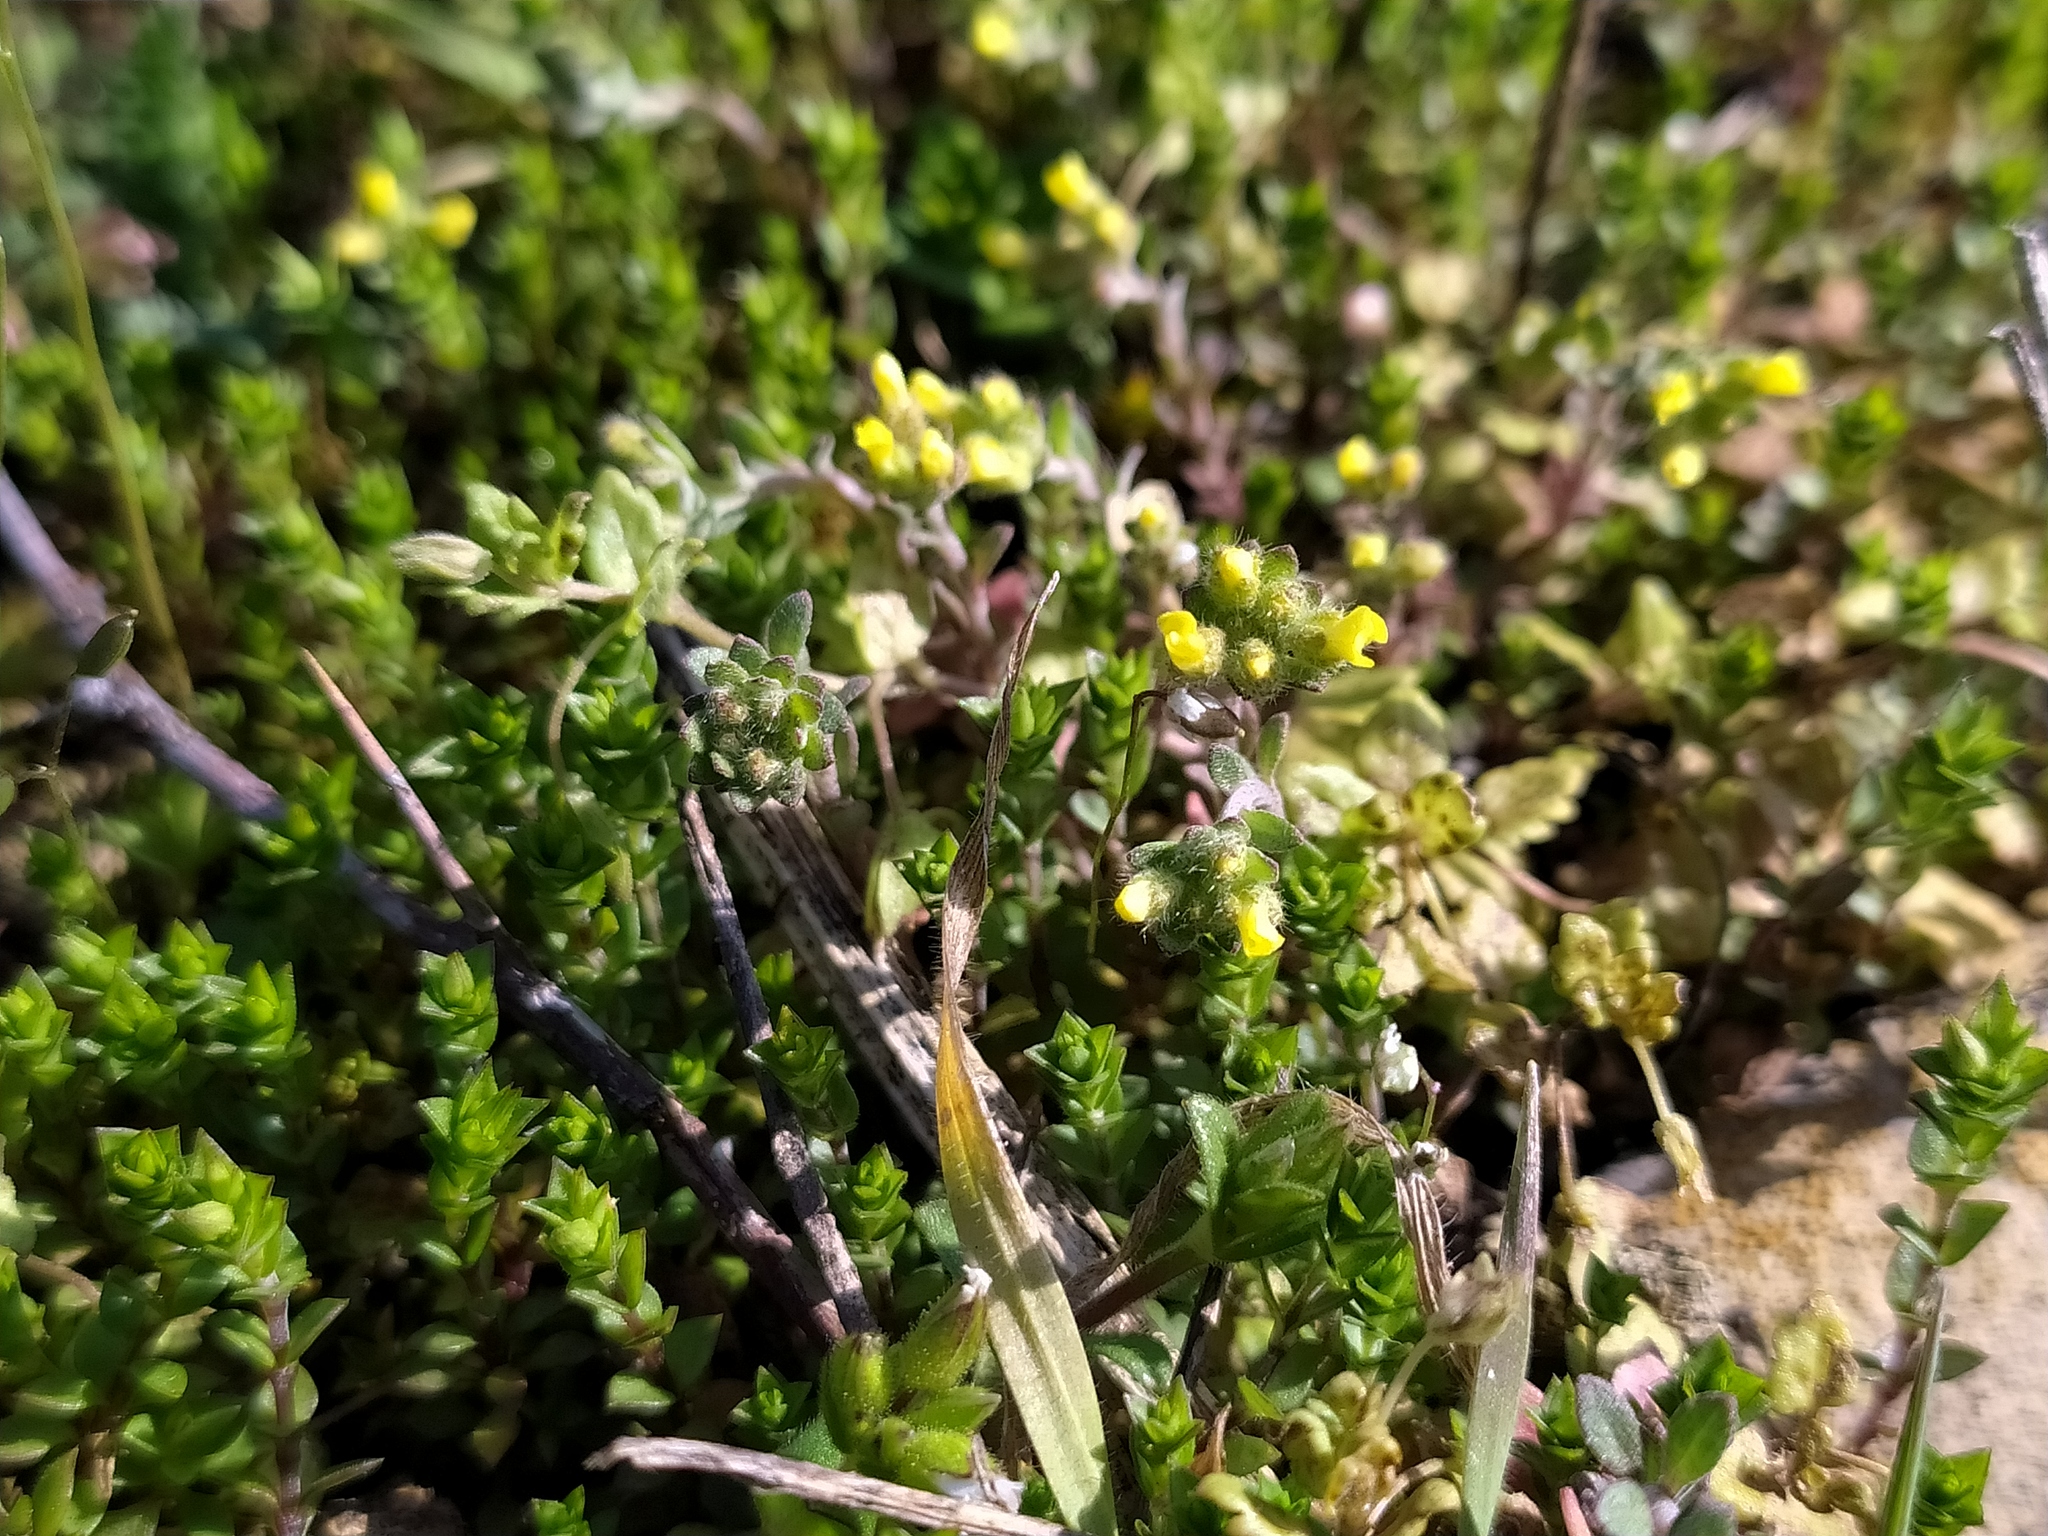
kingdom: Plantae
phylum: Tracheophyta
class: Magnoliopsida
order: Brassicales
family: Brassicaceae
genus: Alyssum
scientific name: Alyssum alyssoides
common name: Small alison
